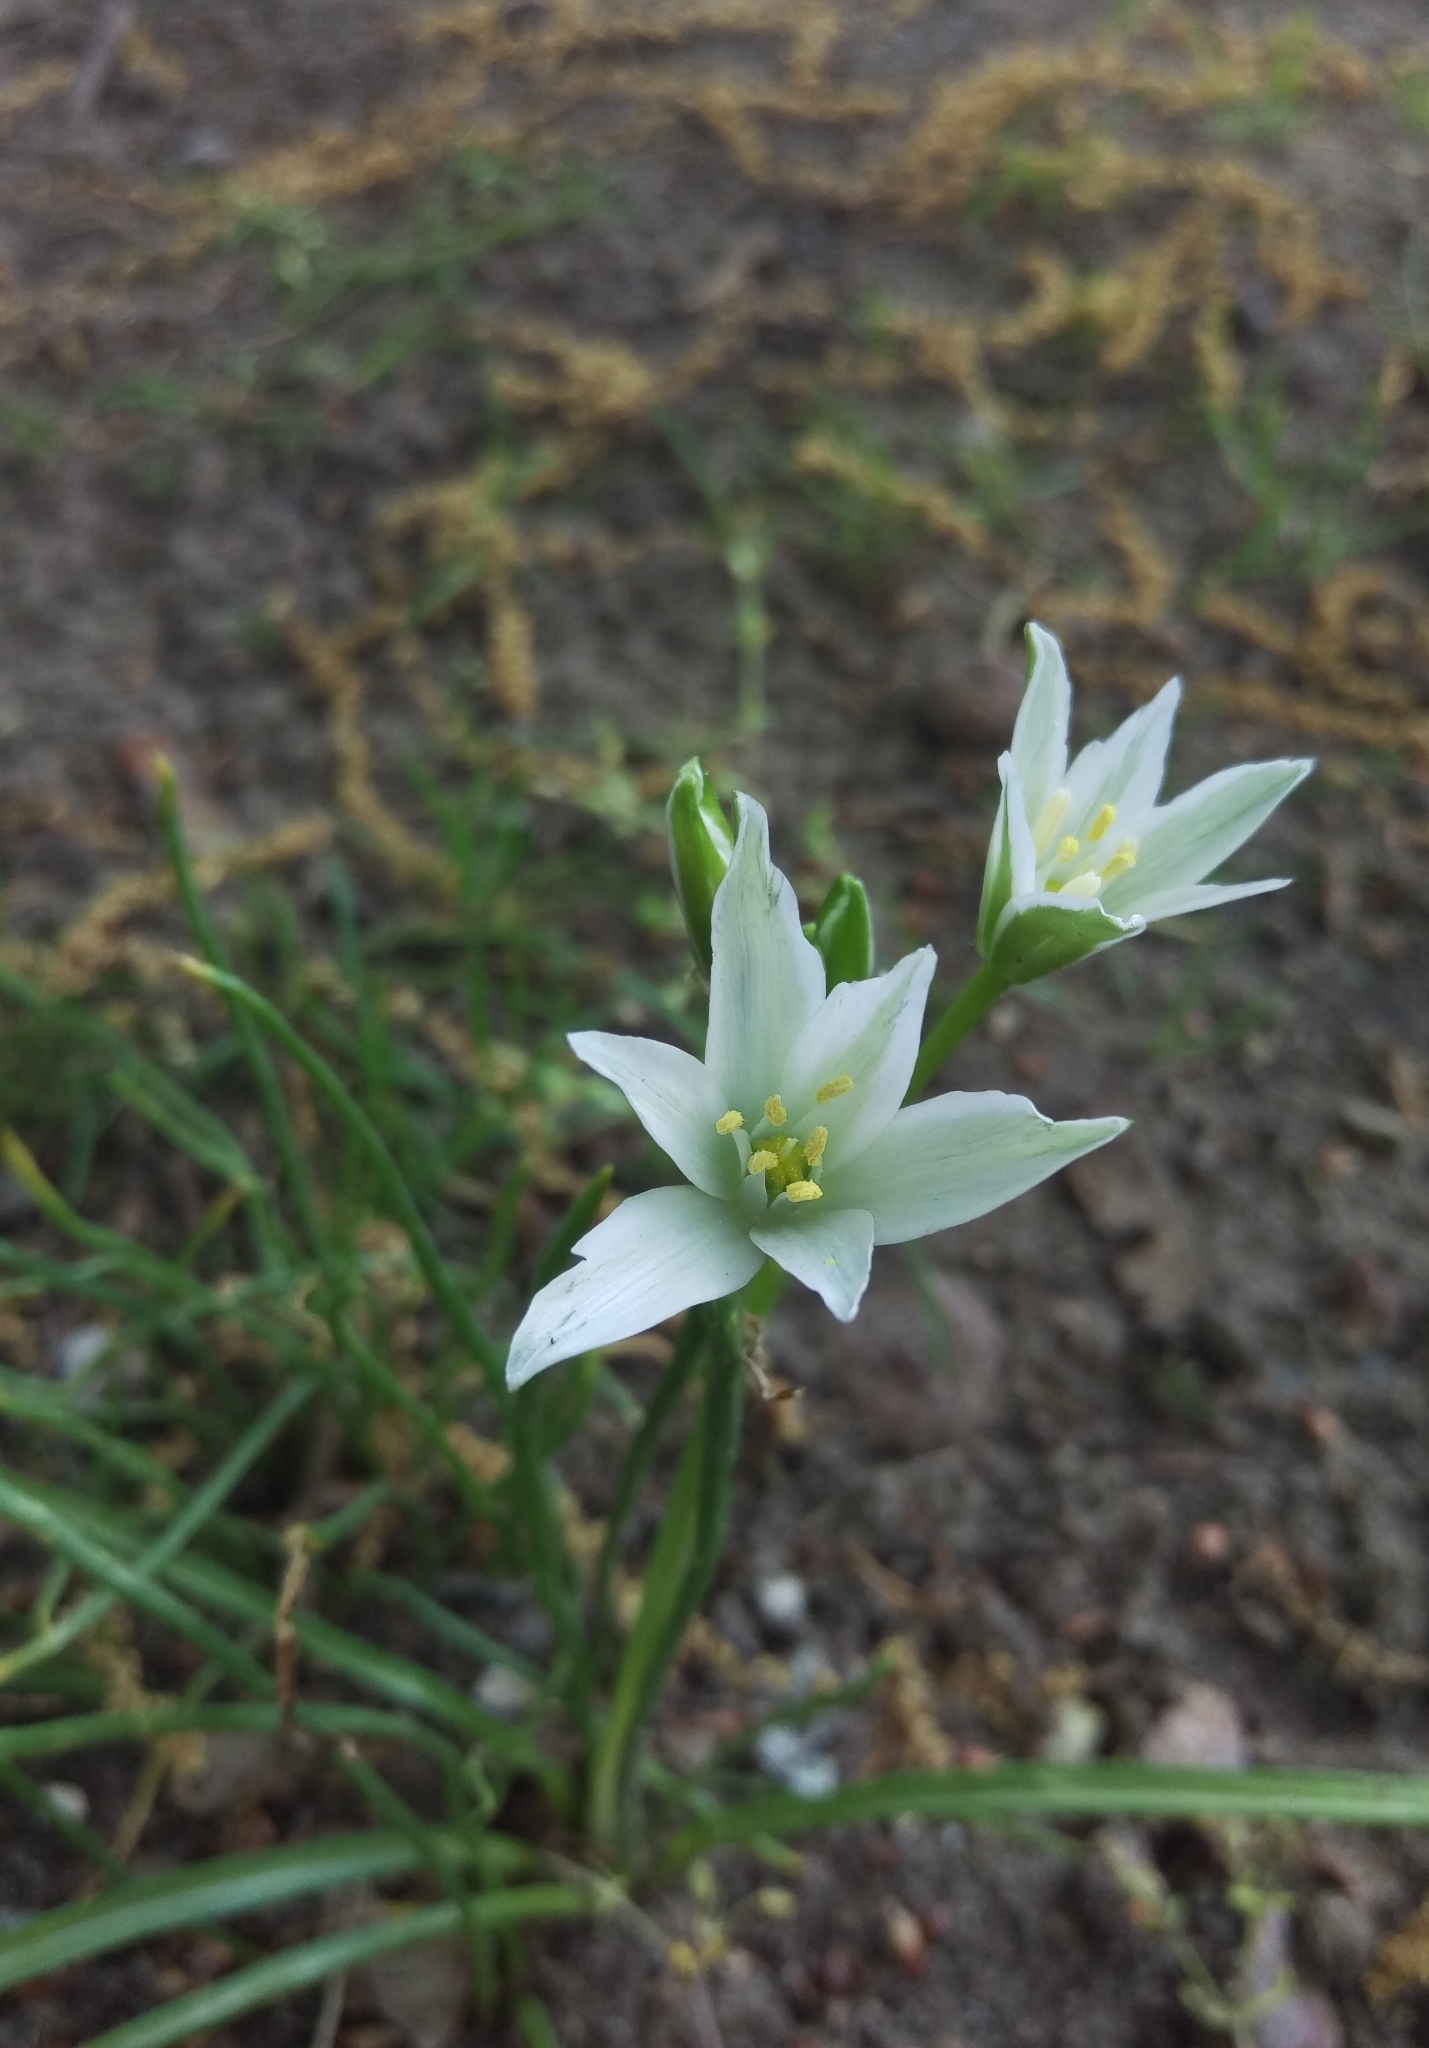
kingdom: Plantae
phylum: Tracheophyta
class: Liliopsida
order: Asparagales
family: Asparagaceae
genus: Ornithogalum
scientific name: Ornithogalum umbellatum
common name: Garden star-of-bethlehem
